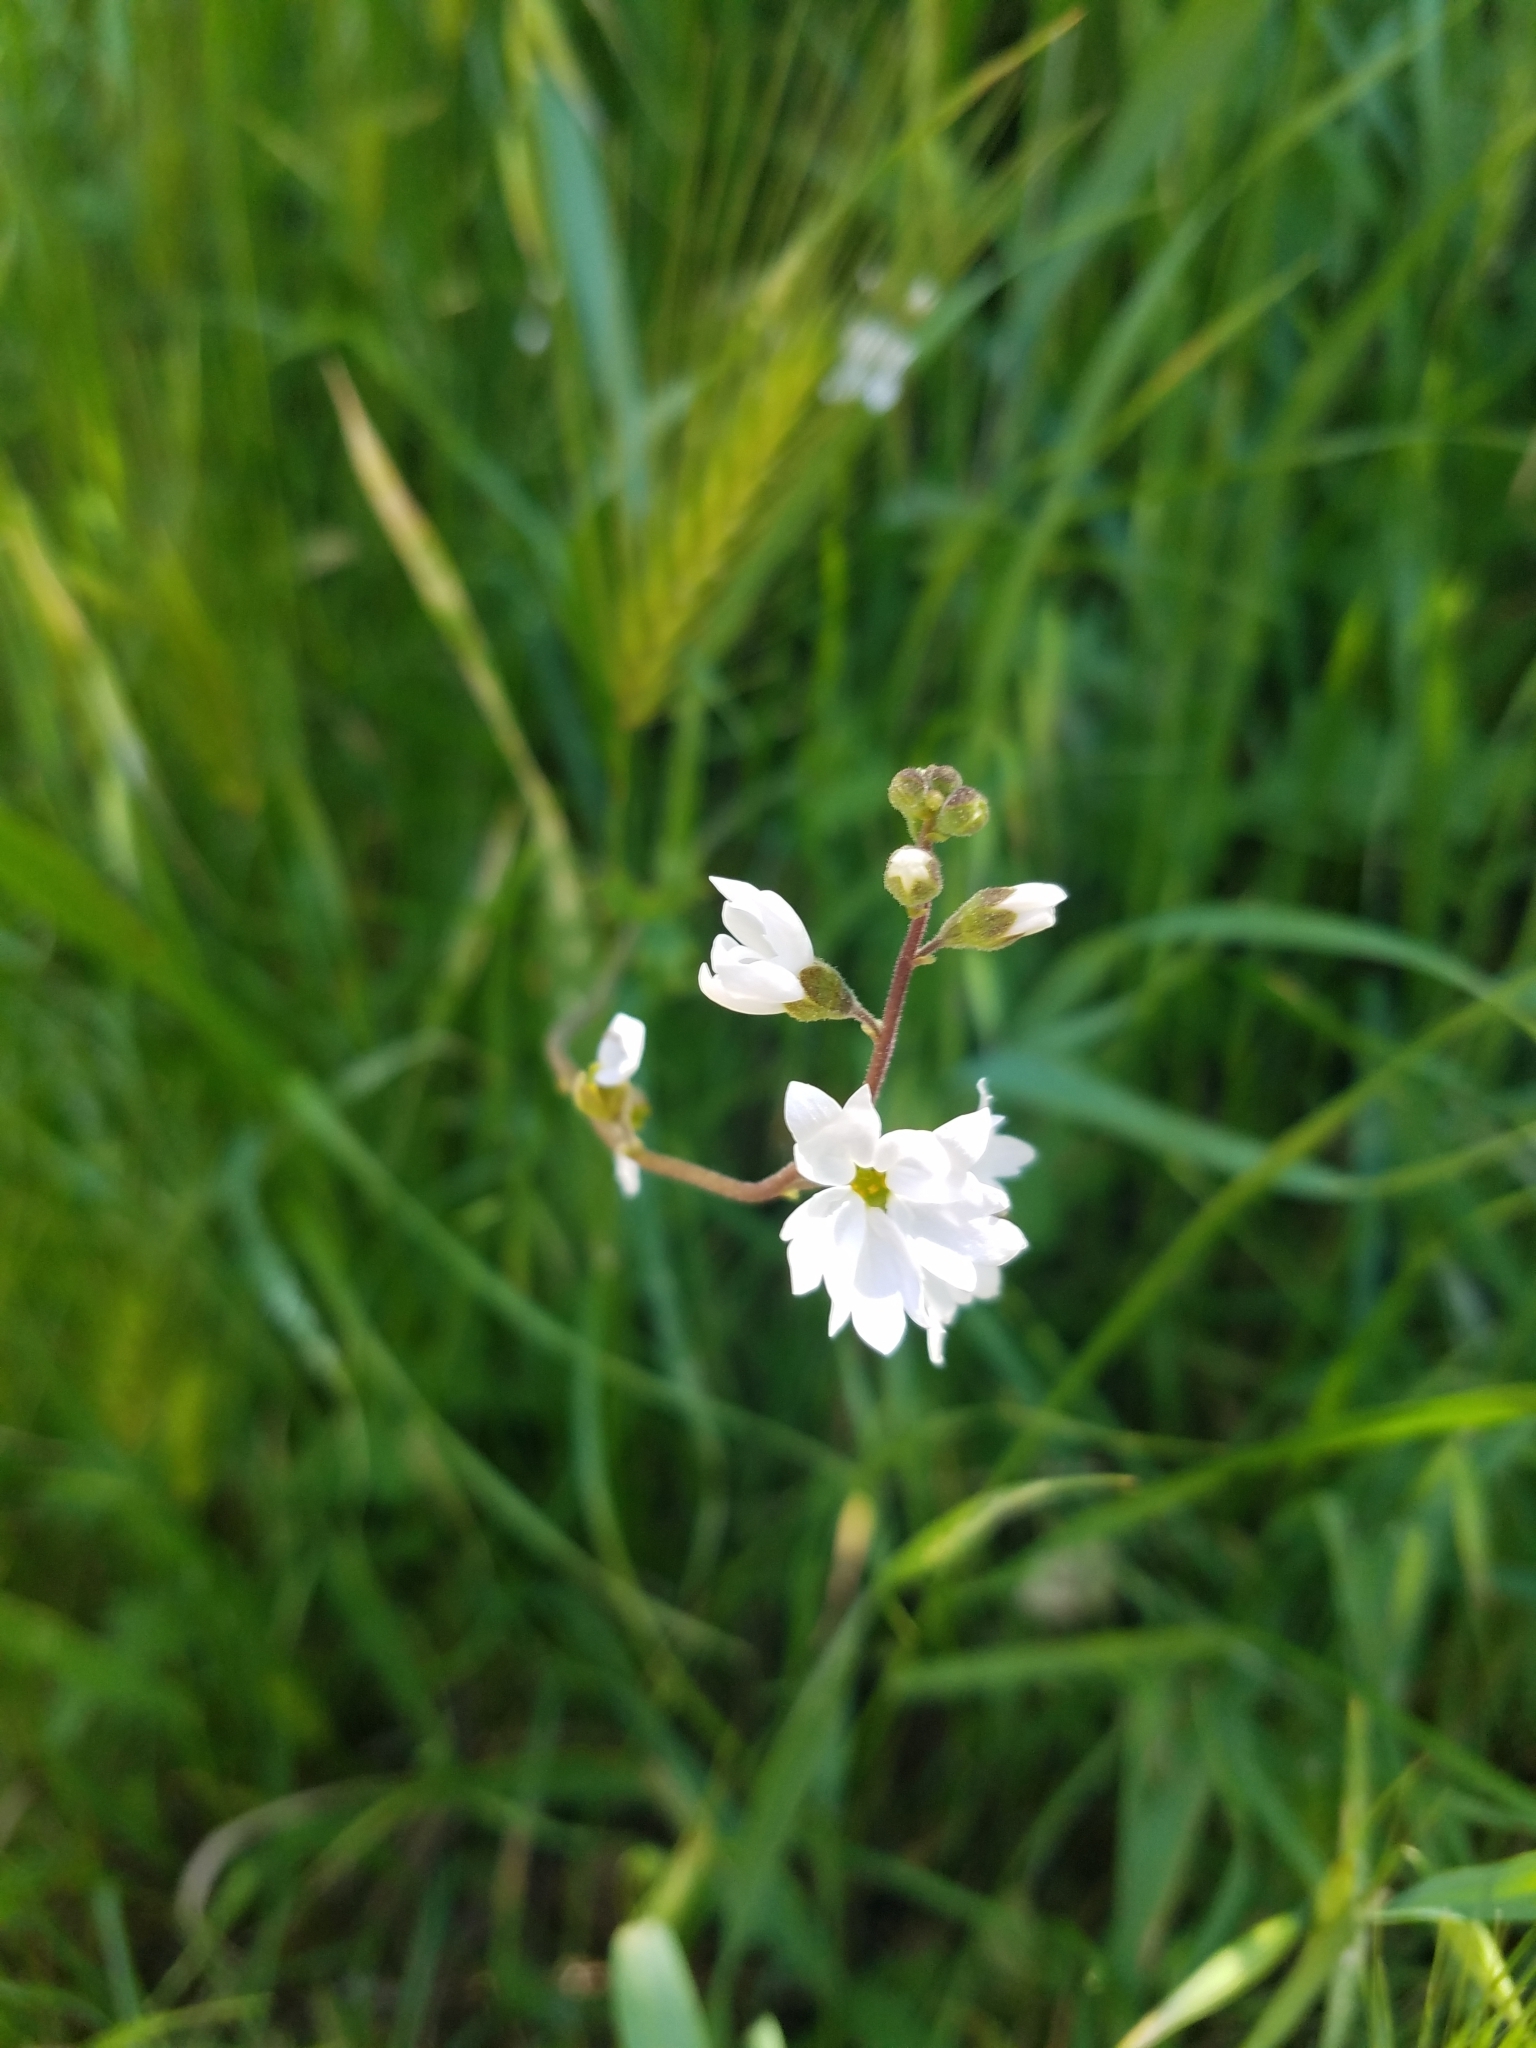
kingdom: Plantae
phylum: Tracheophyta
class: Magnoliopsida
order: Saxifragales
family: Saxifragaceae
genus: Lithophragma
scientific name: Lithophragma affine
